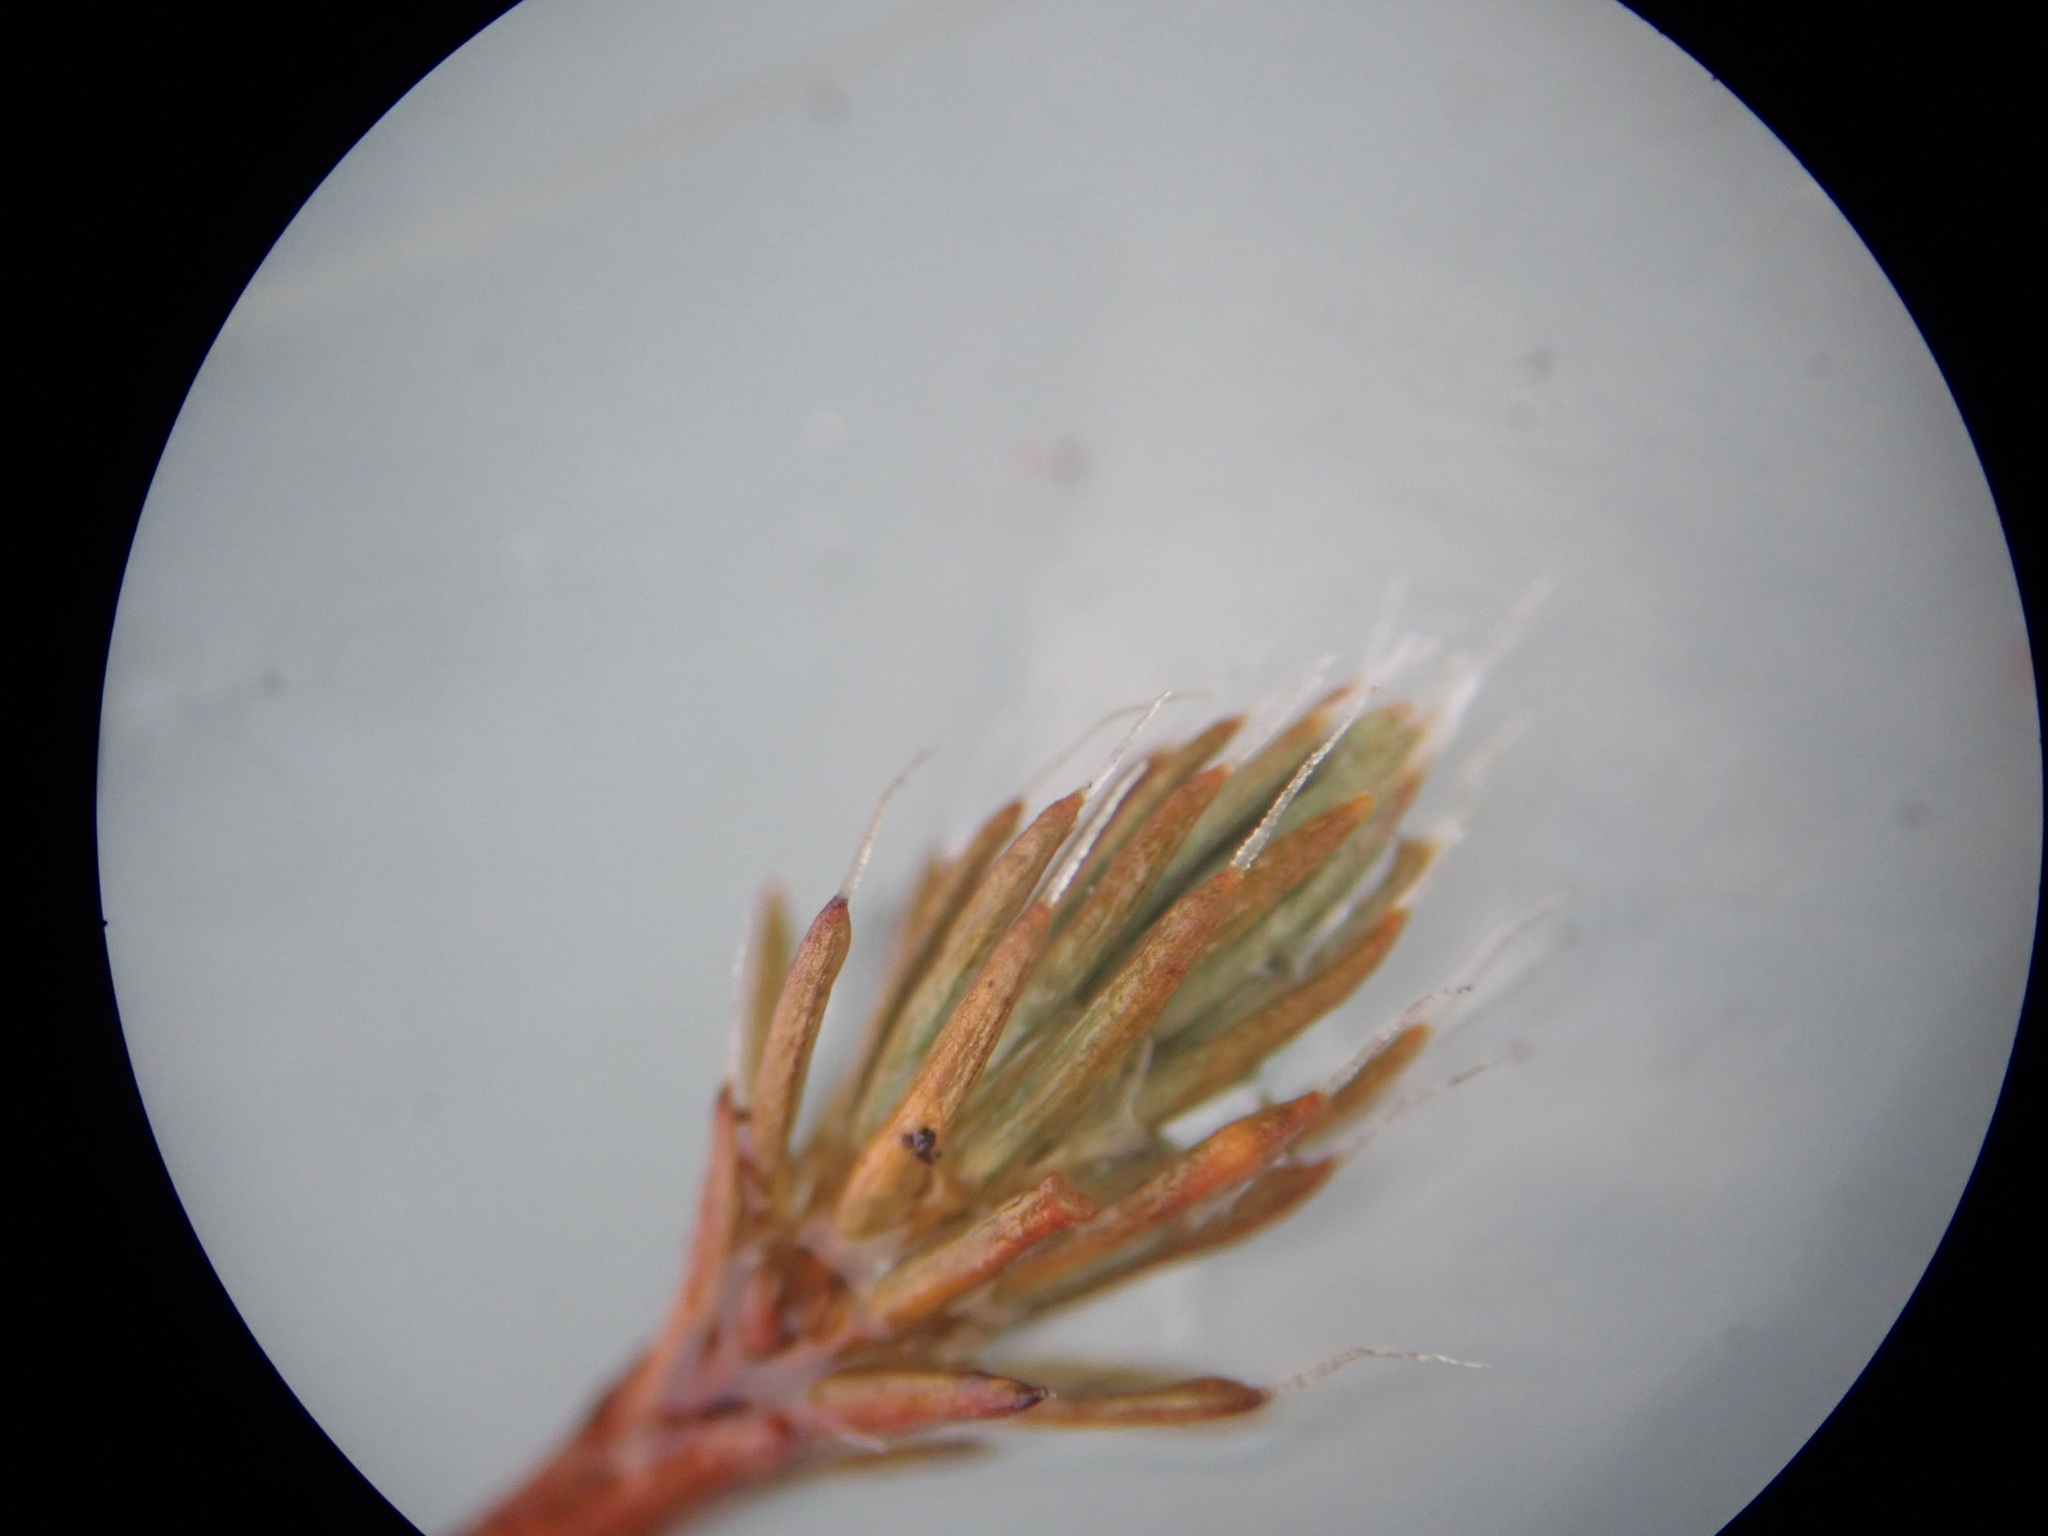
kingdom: Plantae
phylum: Bryophyta
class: Polytrichopsida
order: Polytrichales
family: Polytrichaceae
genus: Polytrichum
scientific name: Polytrichum piliferum
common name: Bristly haircap
